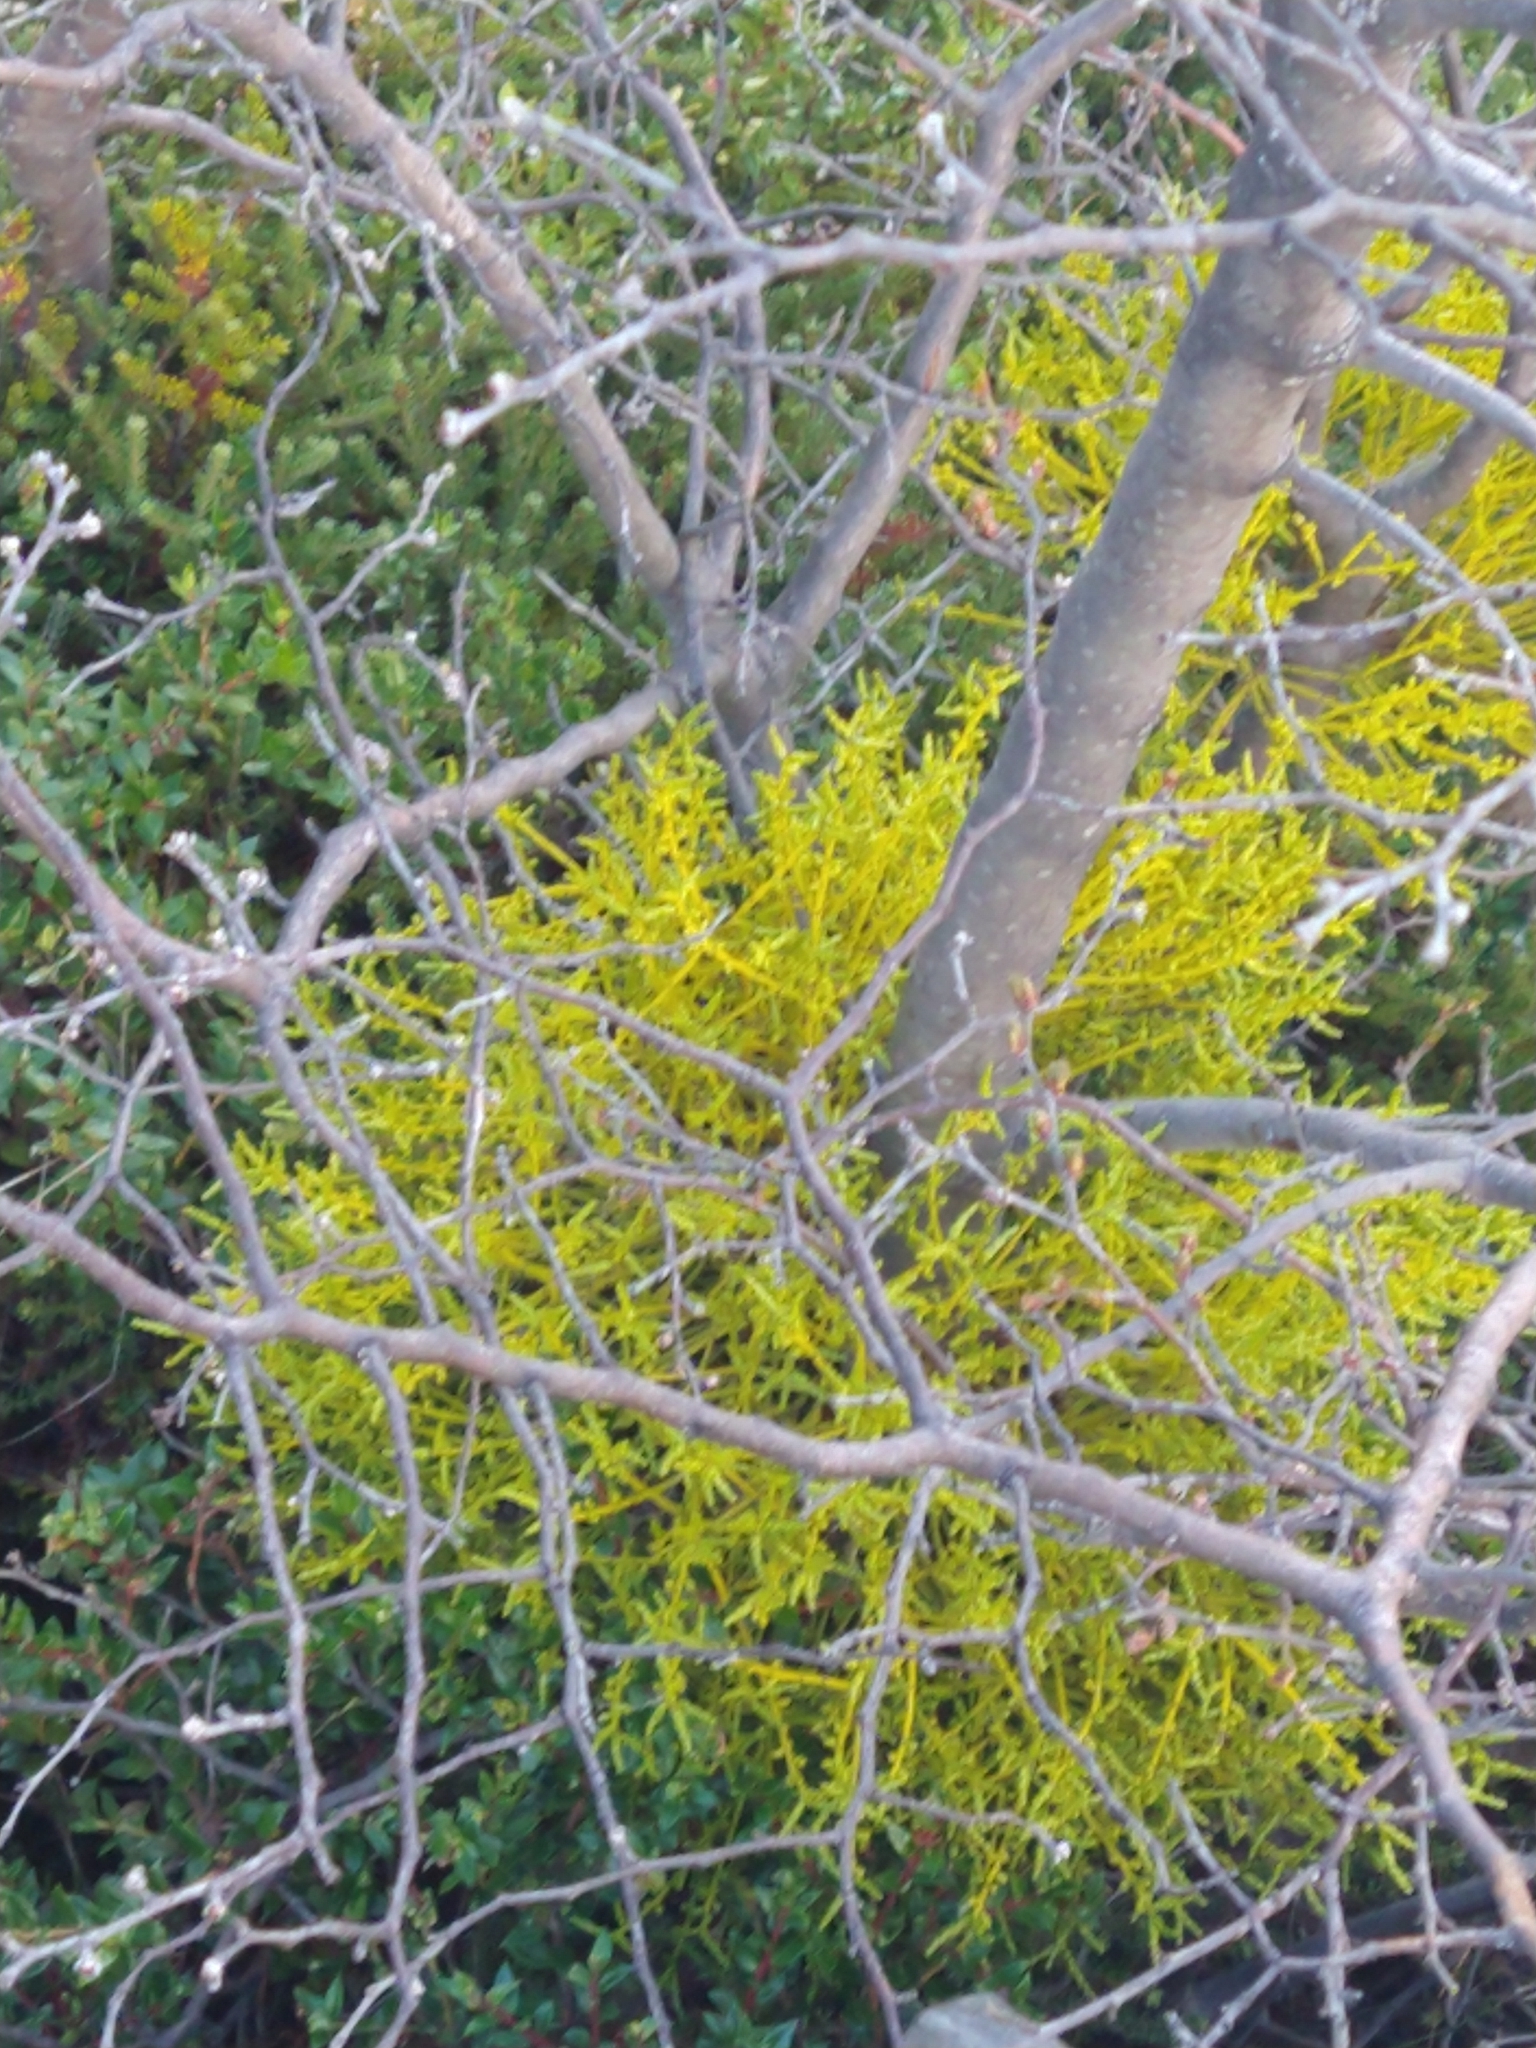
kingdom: Plantae
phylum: Tracheophyta
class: Magnoliopsida
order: Santalales
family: Misodendraceae
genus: Misodendrum
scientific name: Misodendrum punctulatum
